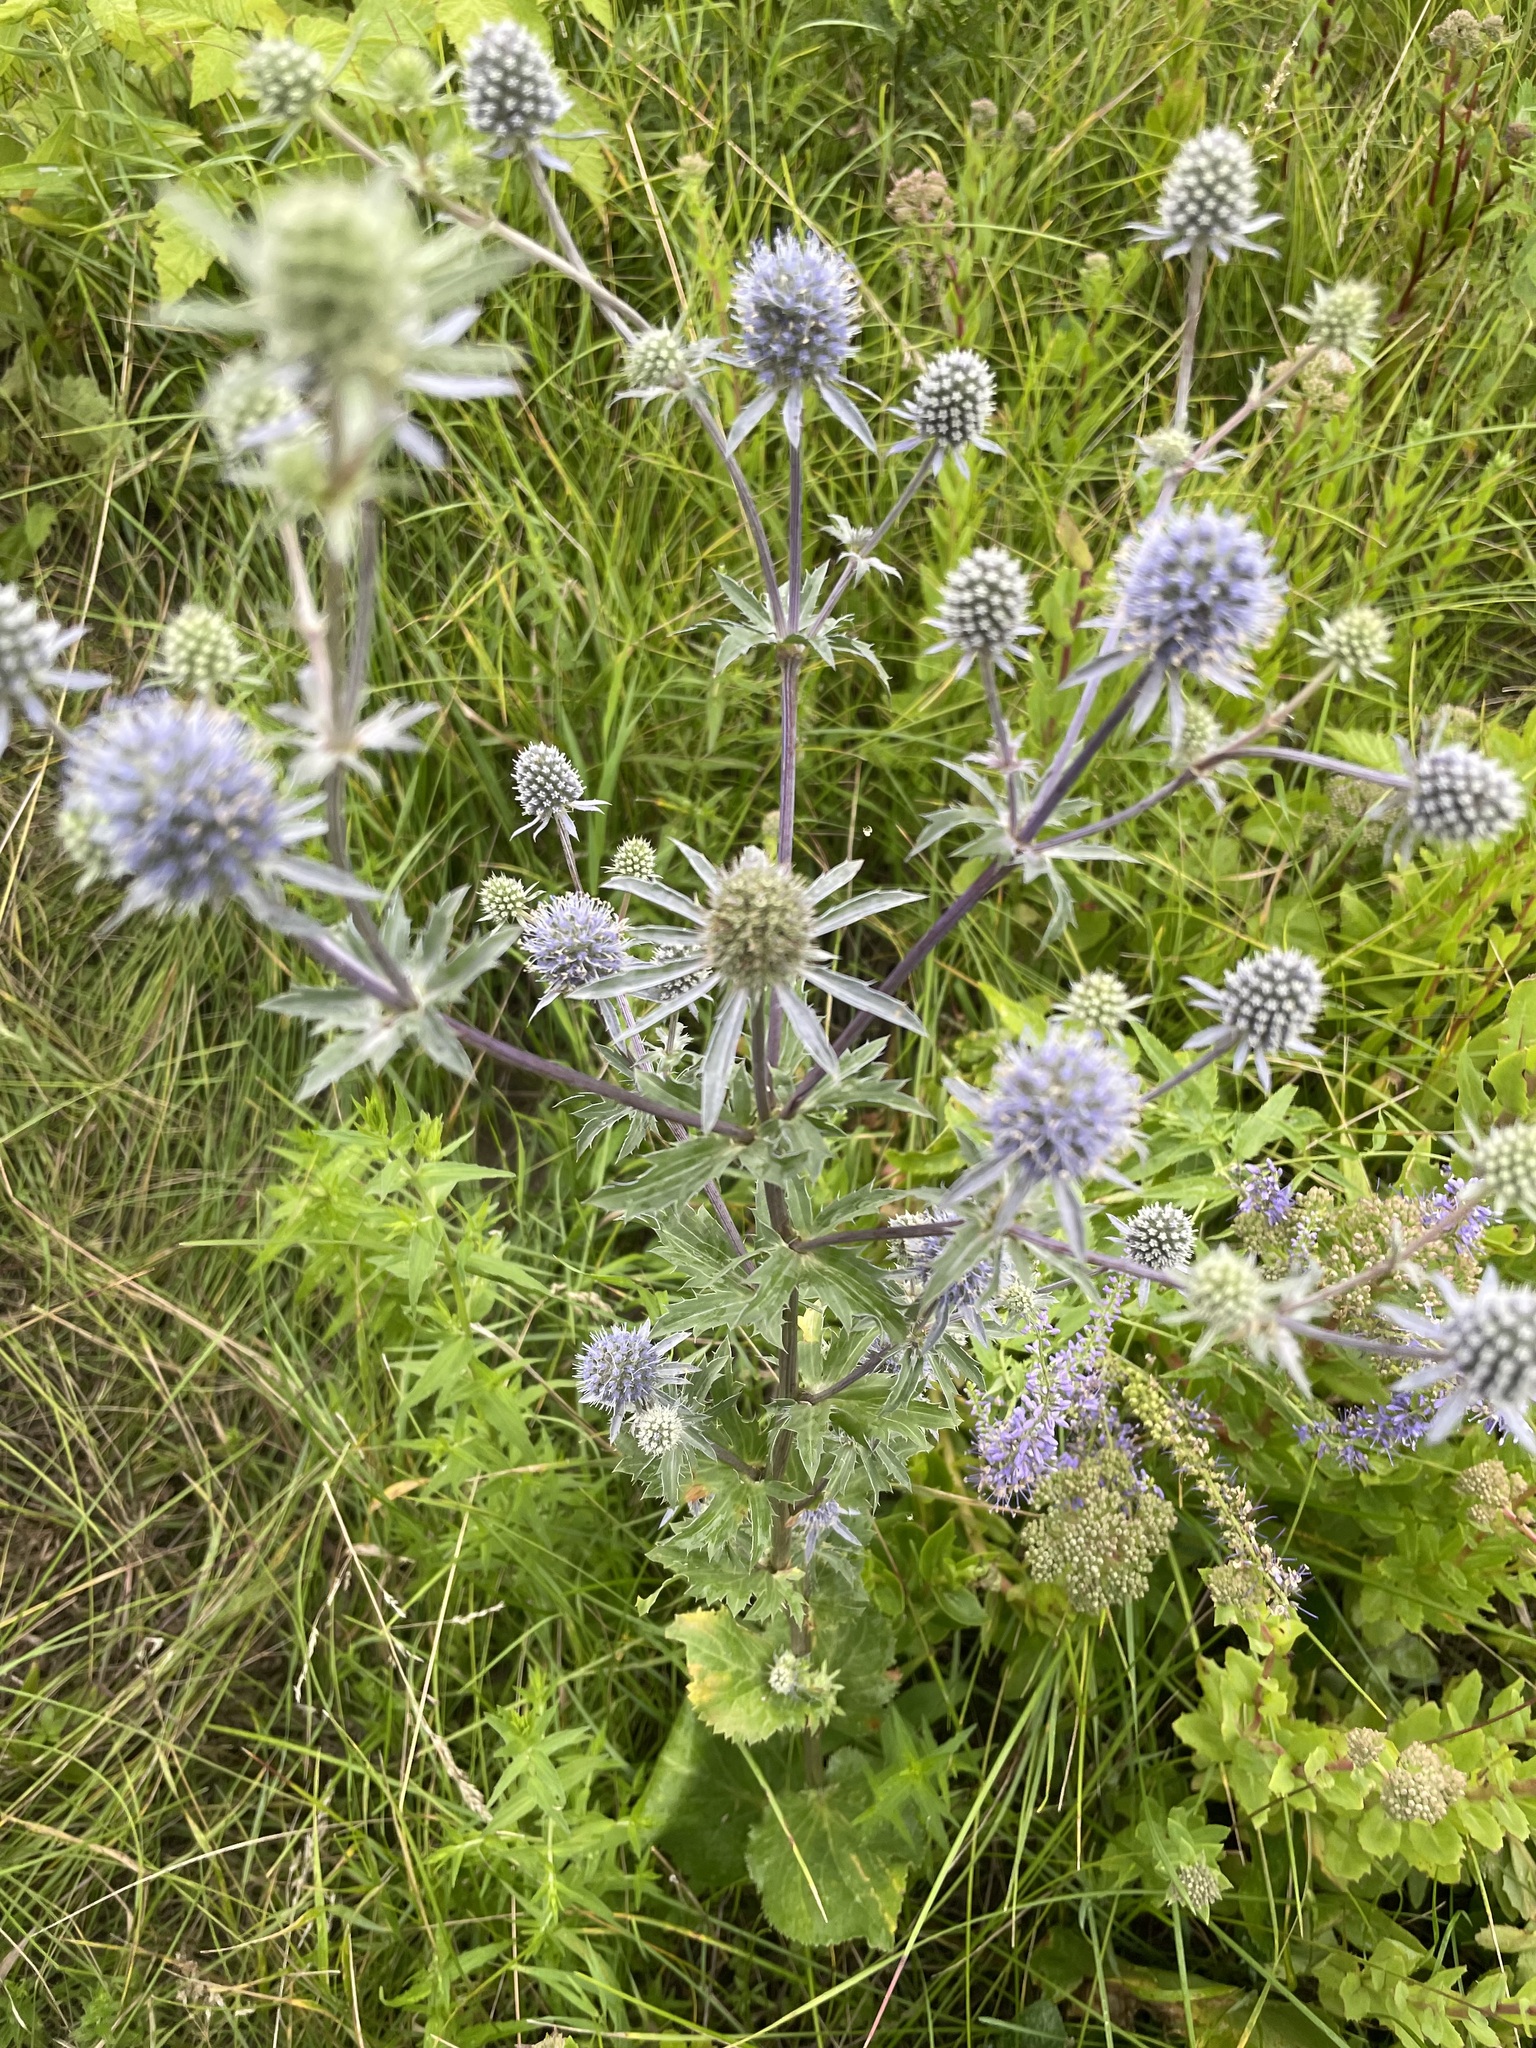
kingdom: Plantae
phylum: Tracheophyta
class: Magnoliopsida
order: Apiales
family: Apiaceae
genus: Eryngium
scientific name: Eryngium planum
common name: Blue eryngo
